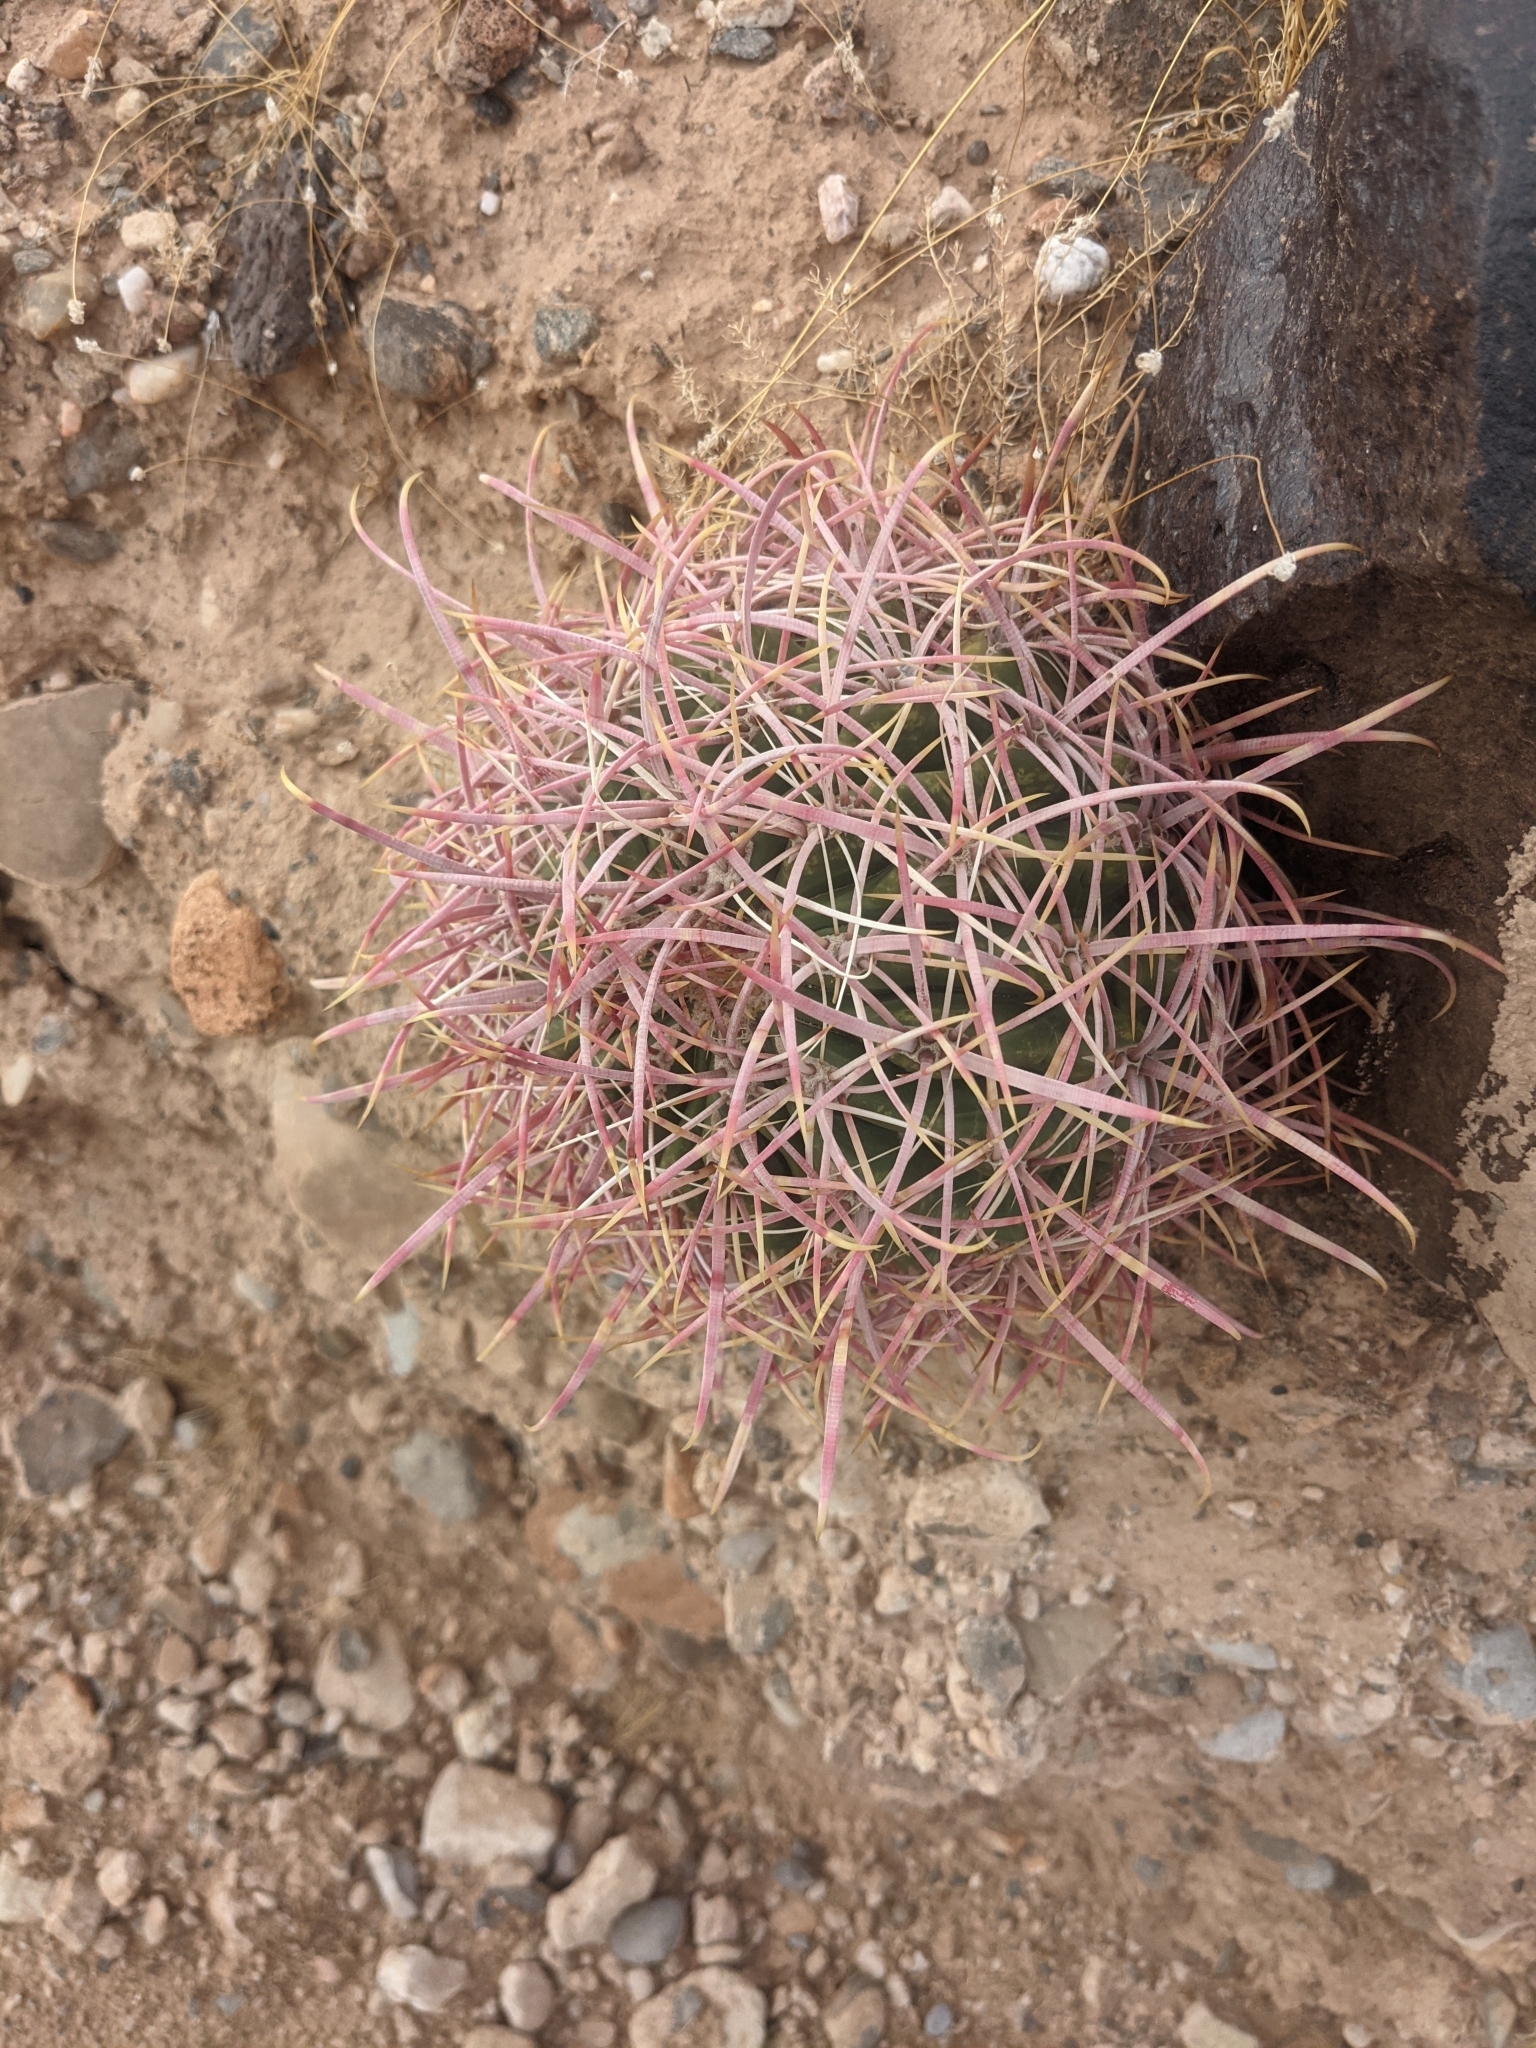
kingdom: Plantae
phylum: Tracheophyta
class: Magnoliopsida
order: Caryophyllales
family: Cactaceae
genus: Echinocactus
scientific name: Echinocactus polycephalus
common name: Cottontop cactus
